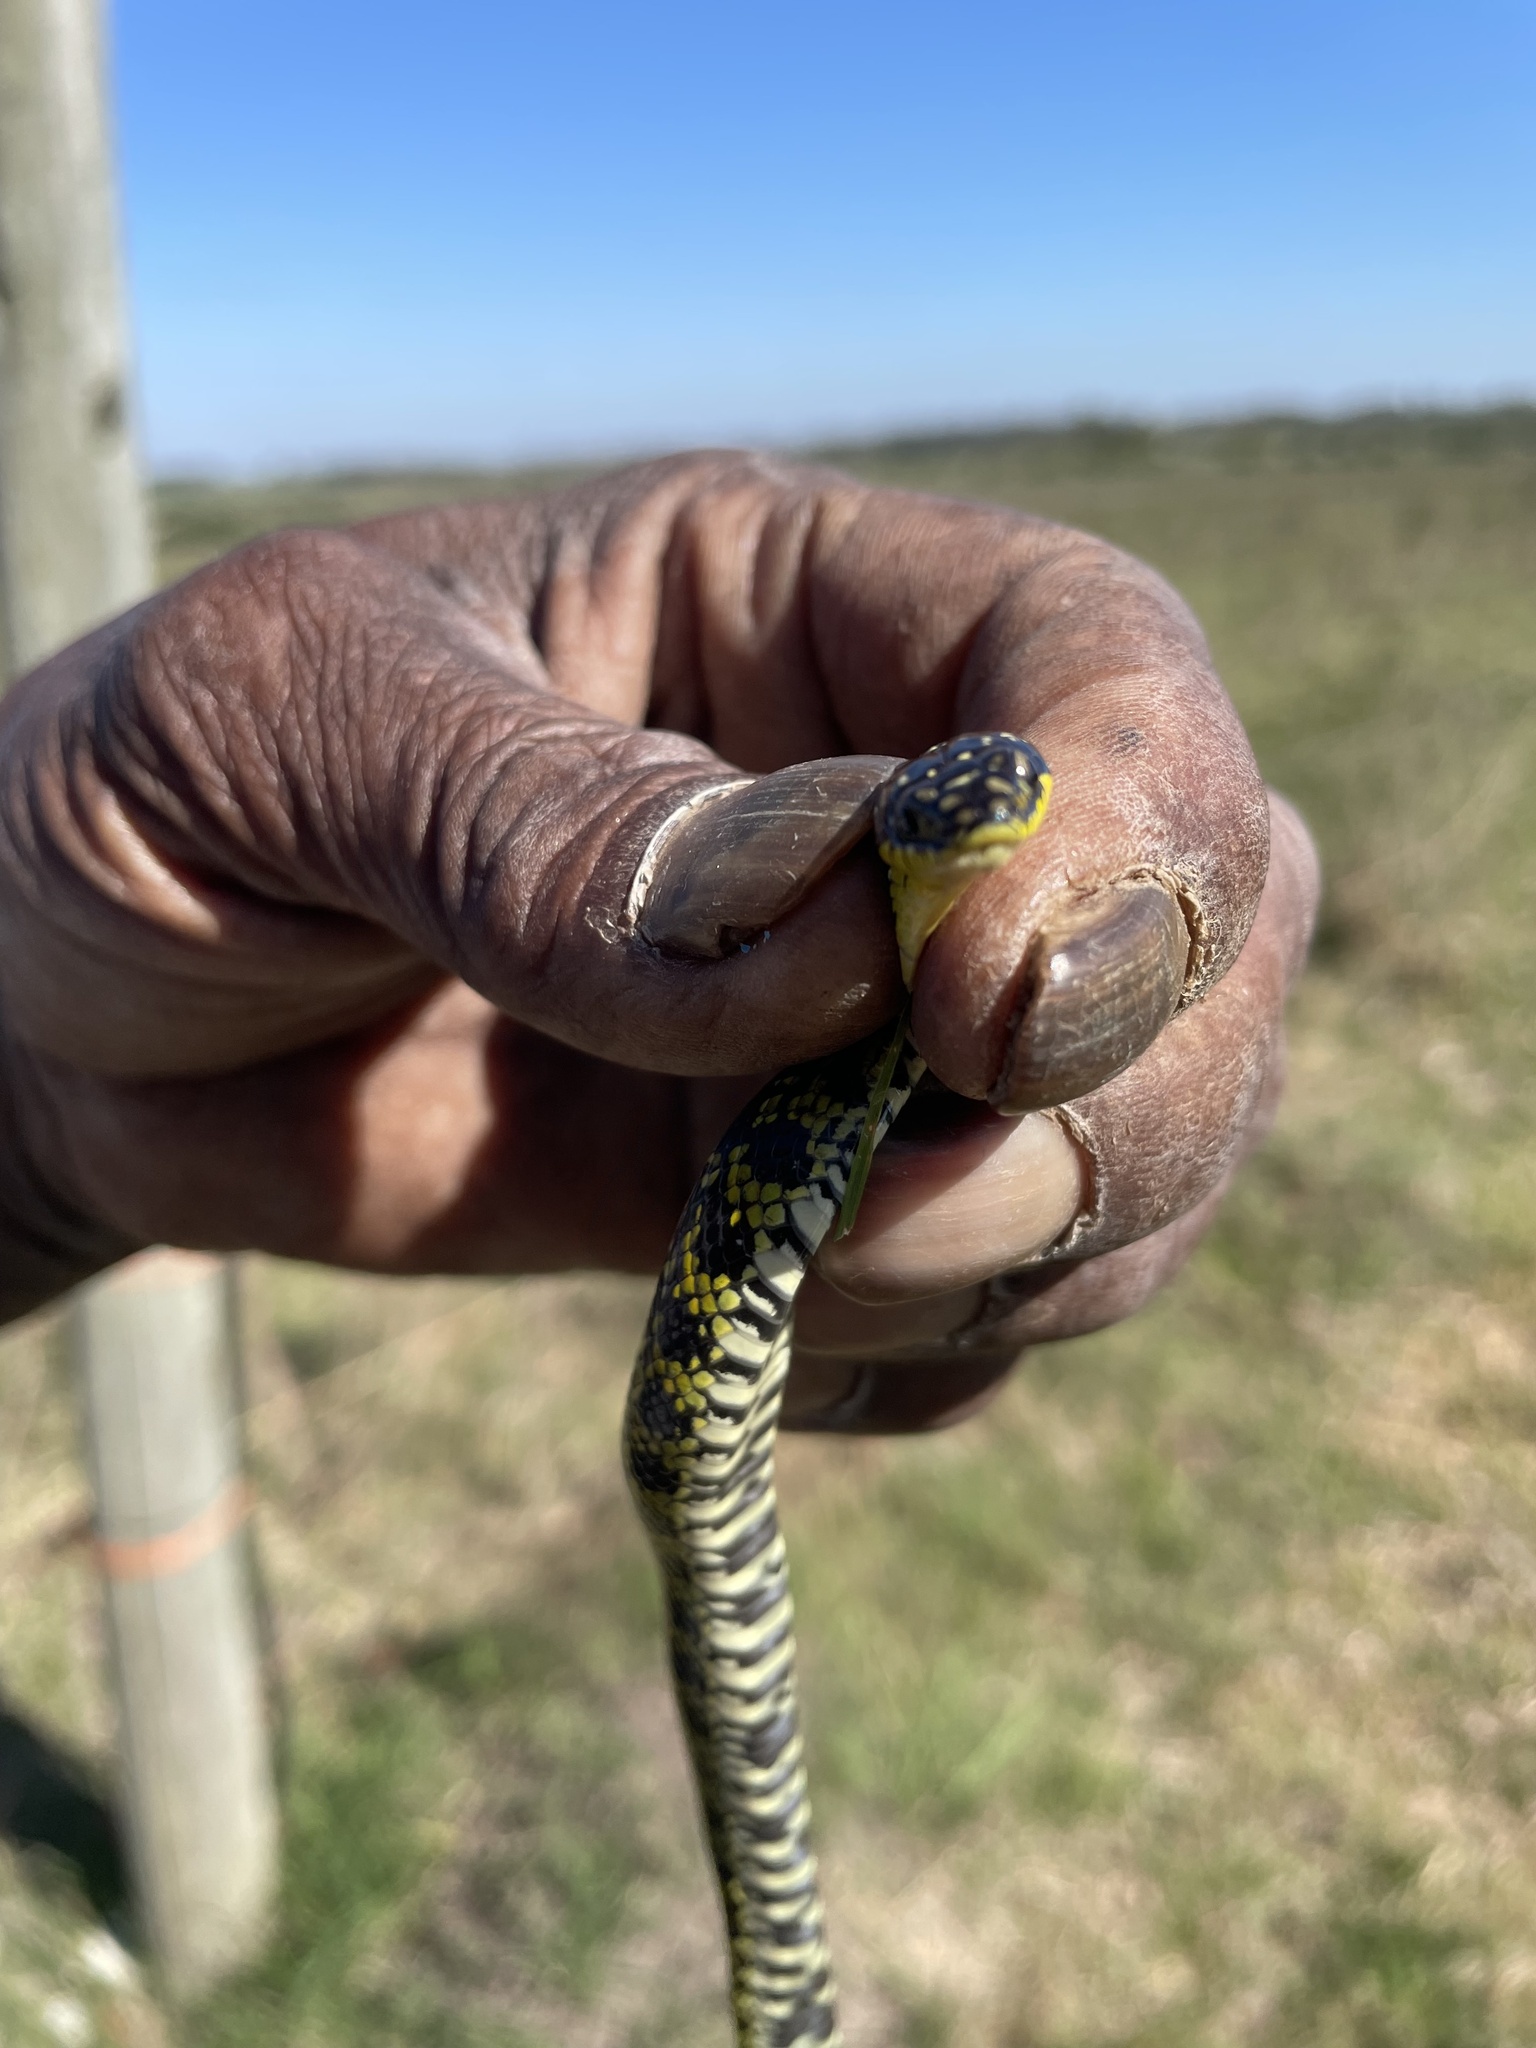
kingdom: Animalia
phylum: Chordata
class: Squamata
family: Colubridae
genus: Erythrolamprus
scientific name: Erythrolamprus poecilogyrus
